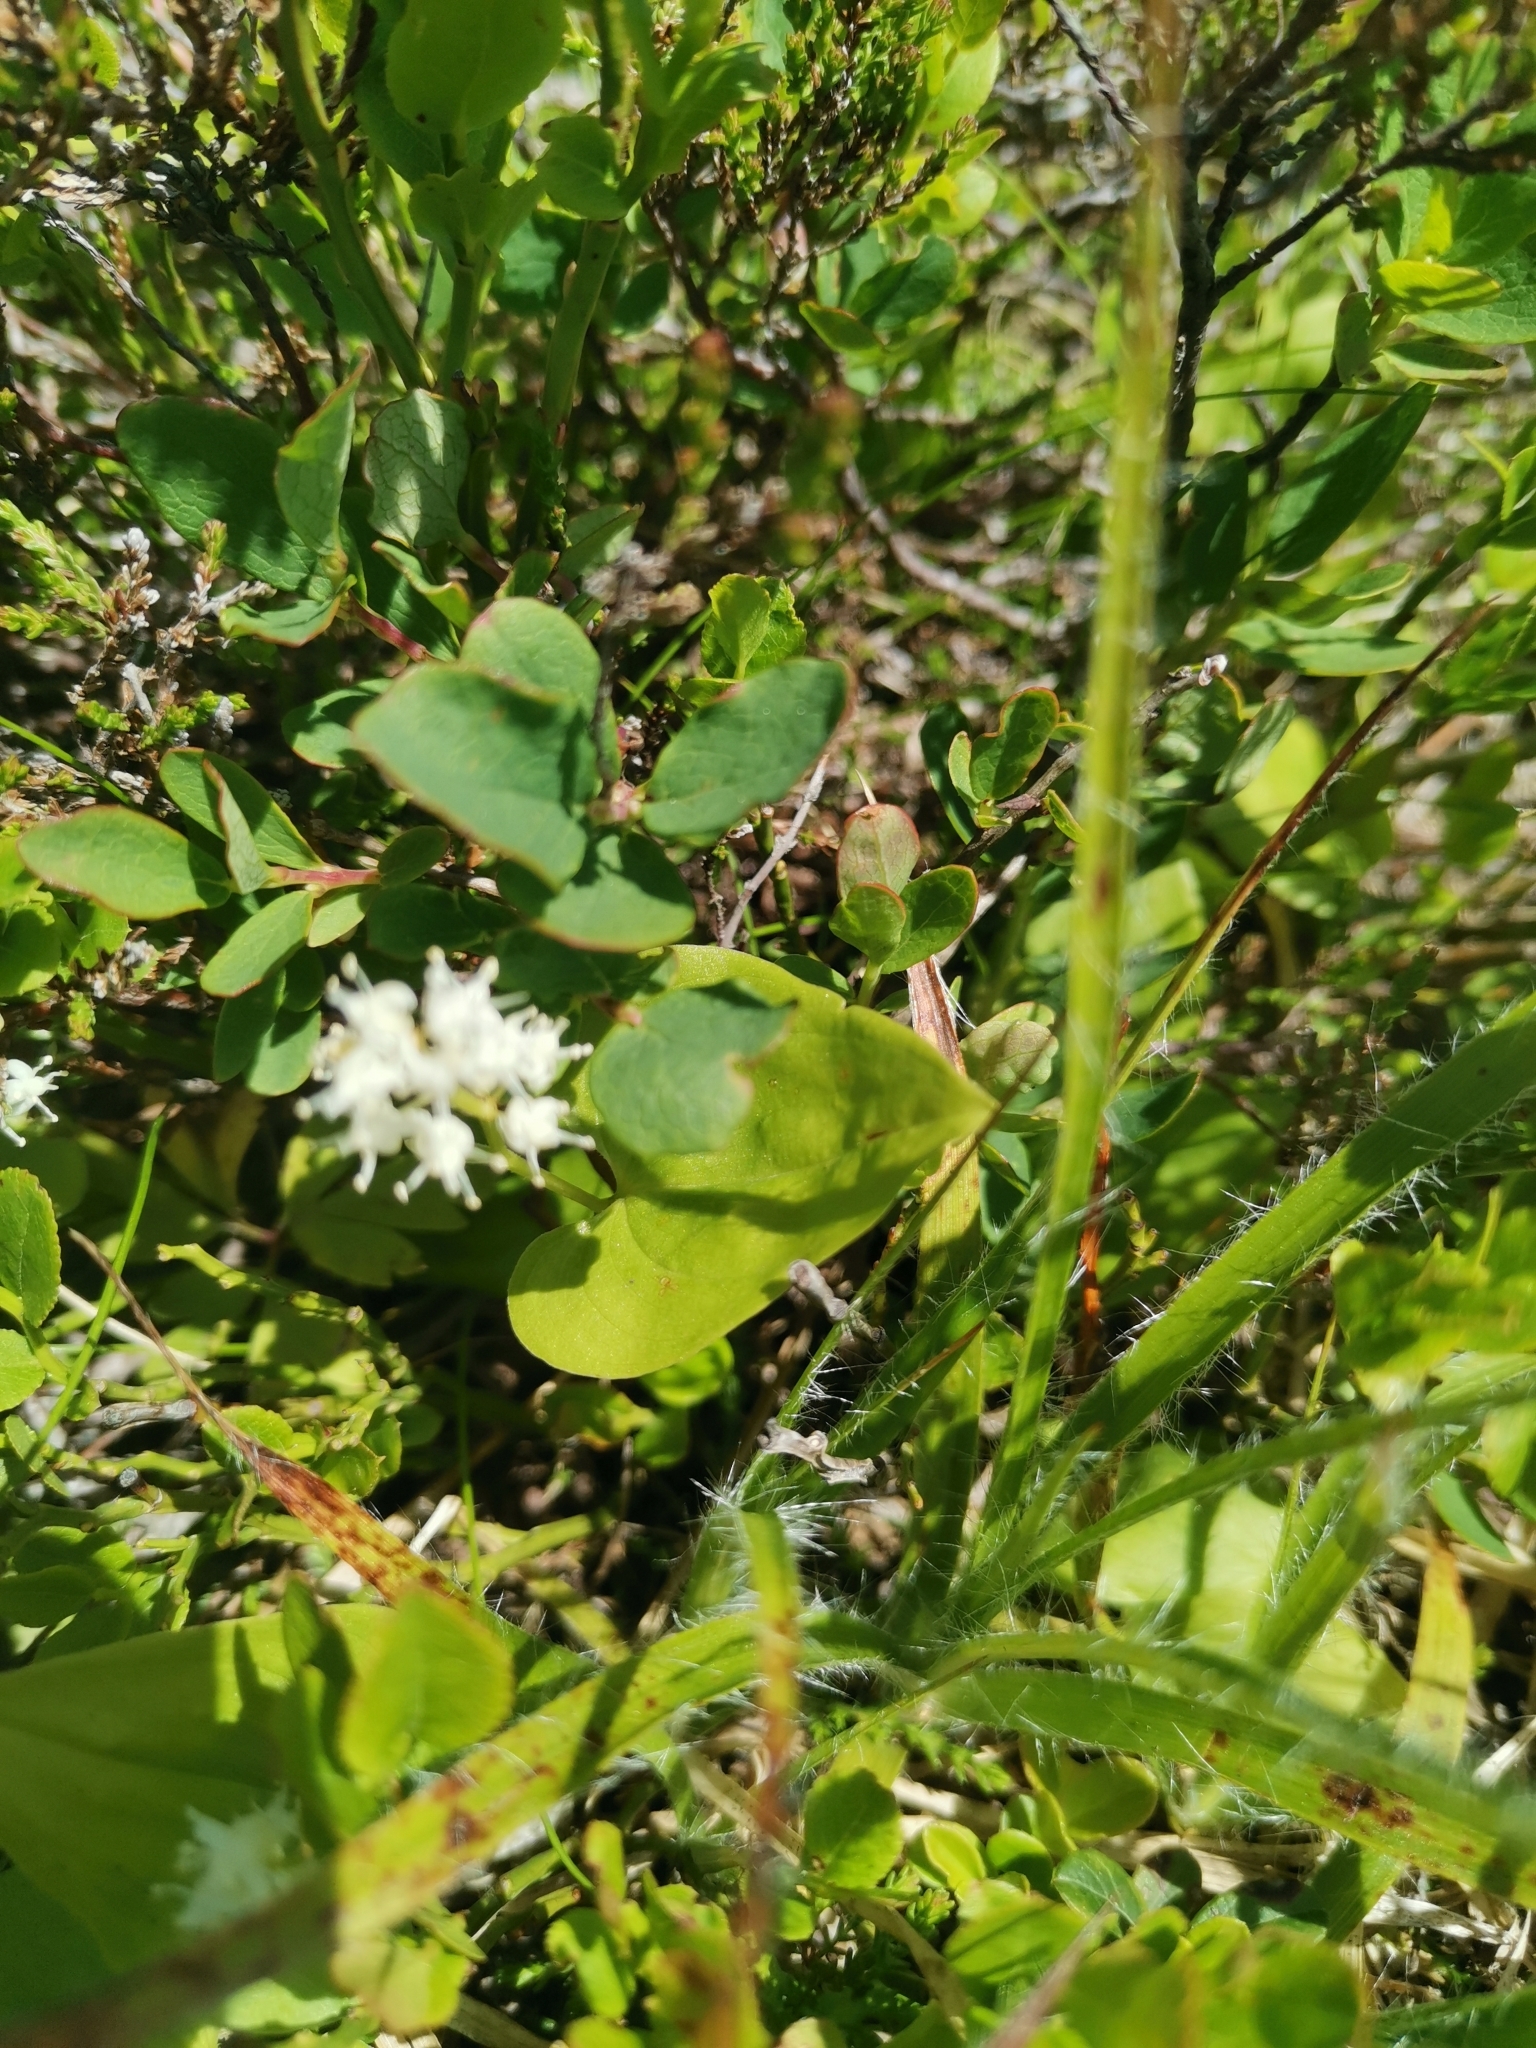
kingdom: Plantae
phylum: Tracheophyta
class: Liliopsida
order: Asparagales
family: Asparagaceae
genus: Maianthemum
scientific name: Maianthemum bifolium
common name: May lily
